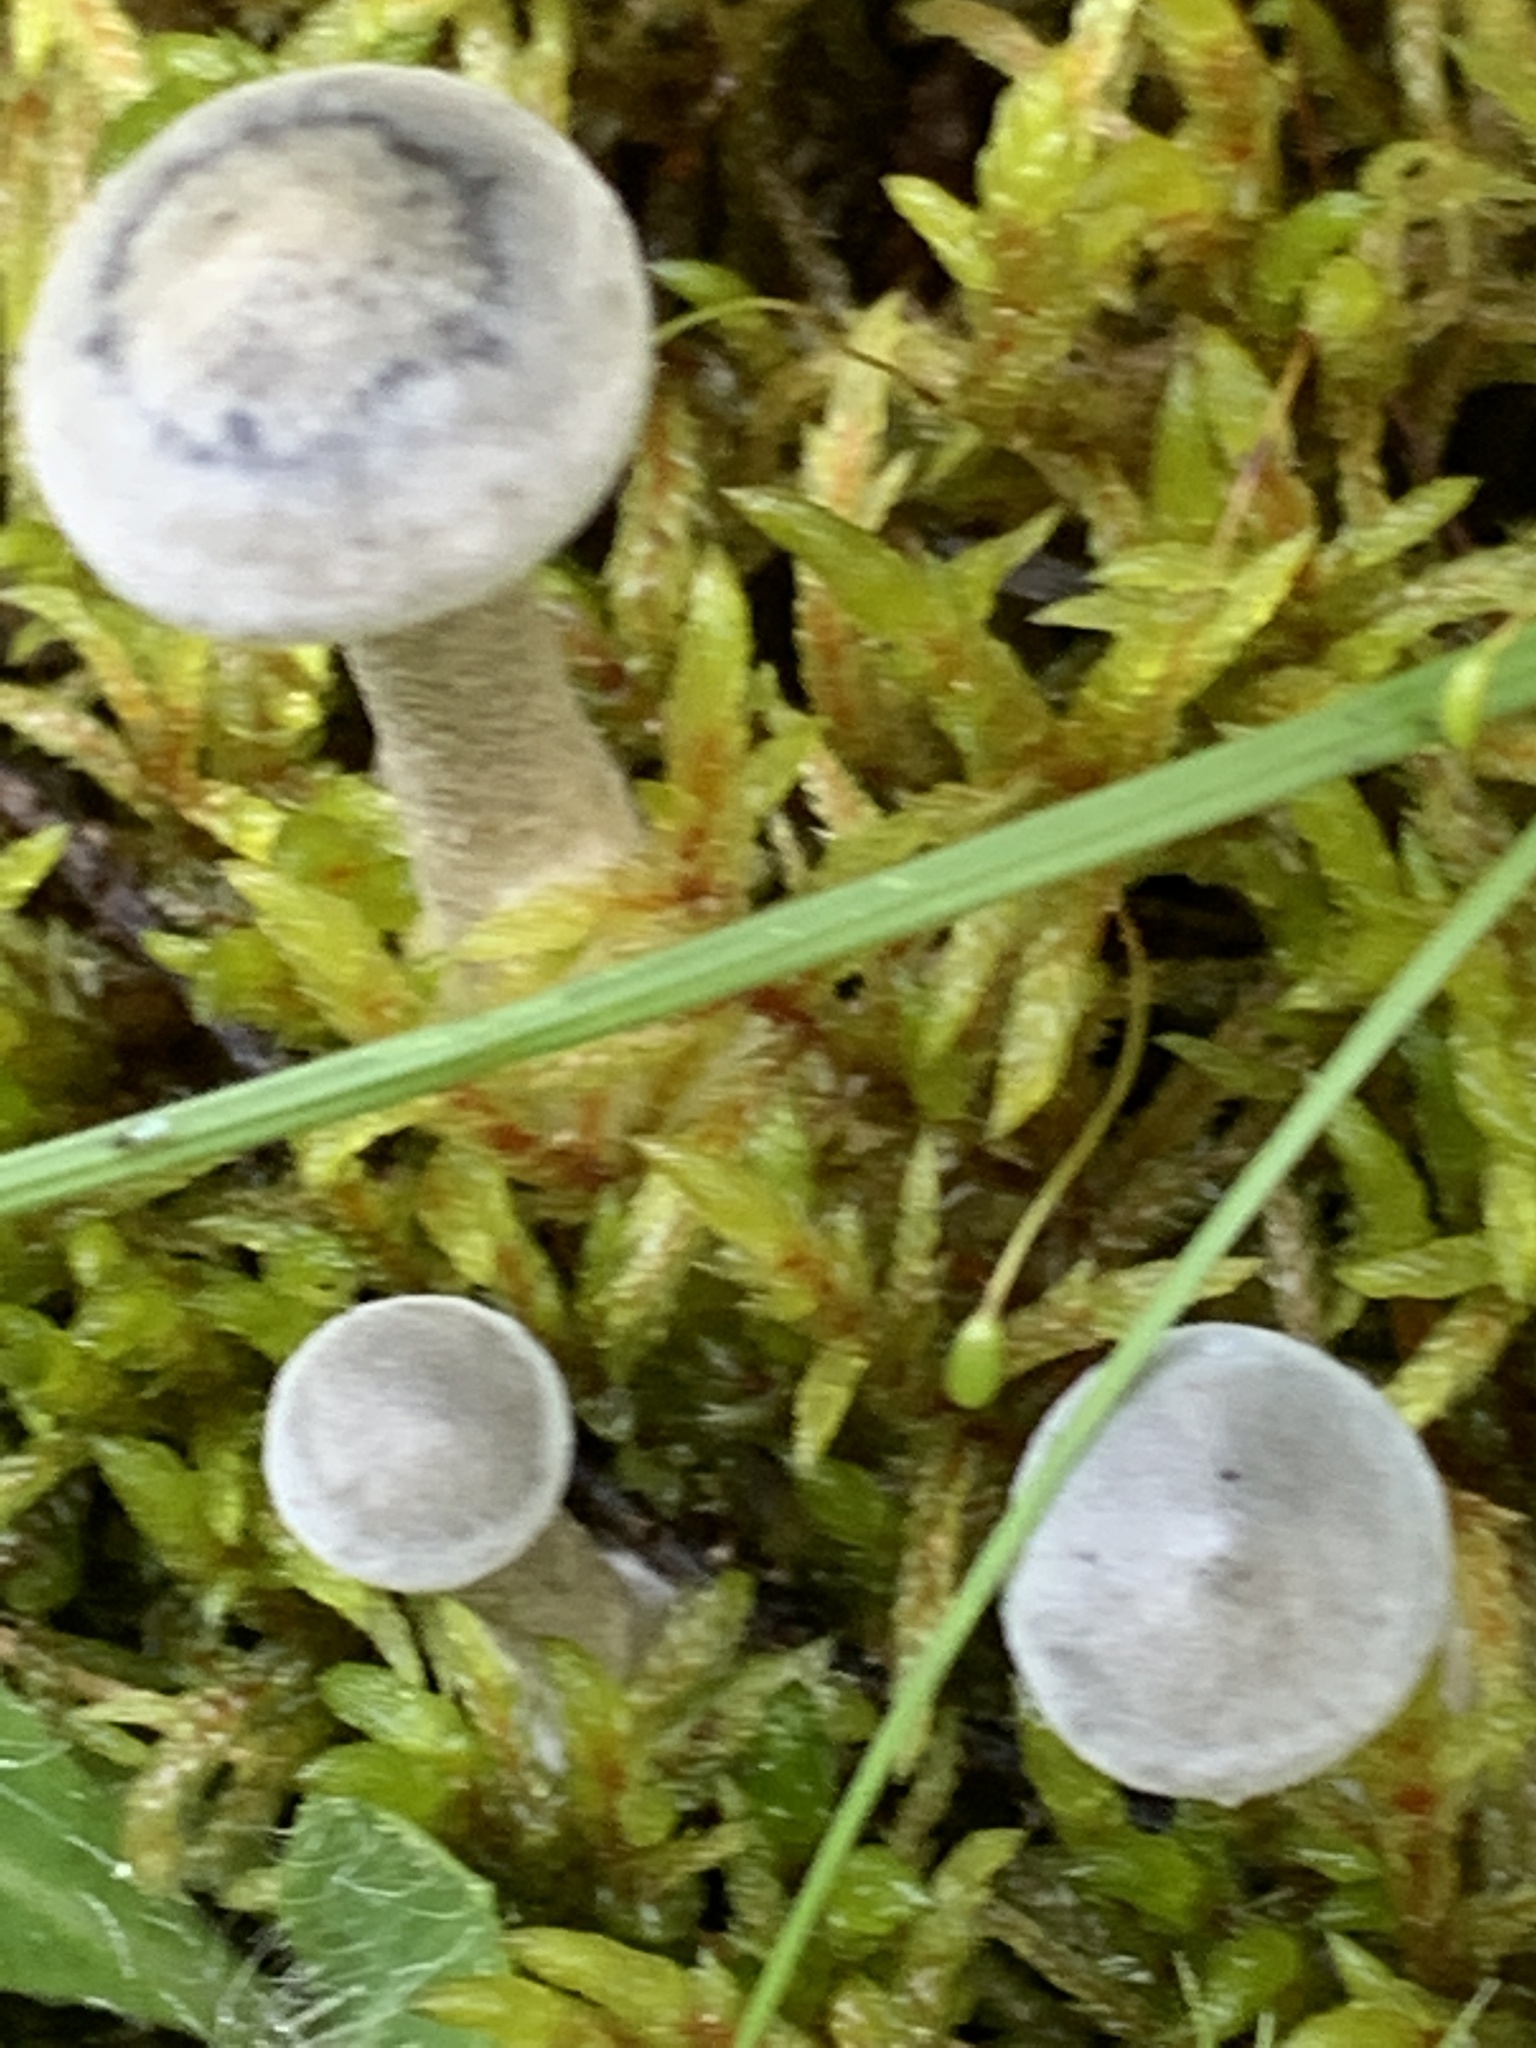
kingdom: Fungi
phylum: Basidiomycota
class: Agaricomycetes
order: Agaricales
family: Hygrophoraceae
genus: Cantharellula
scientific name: Cantharellula umbonata
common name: The humpback
